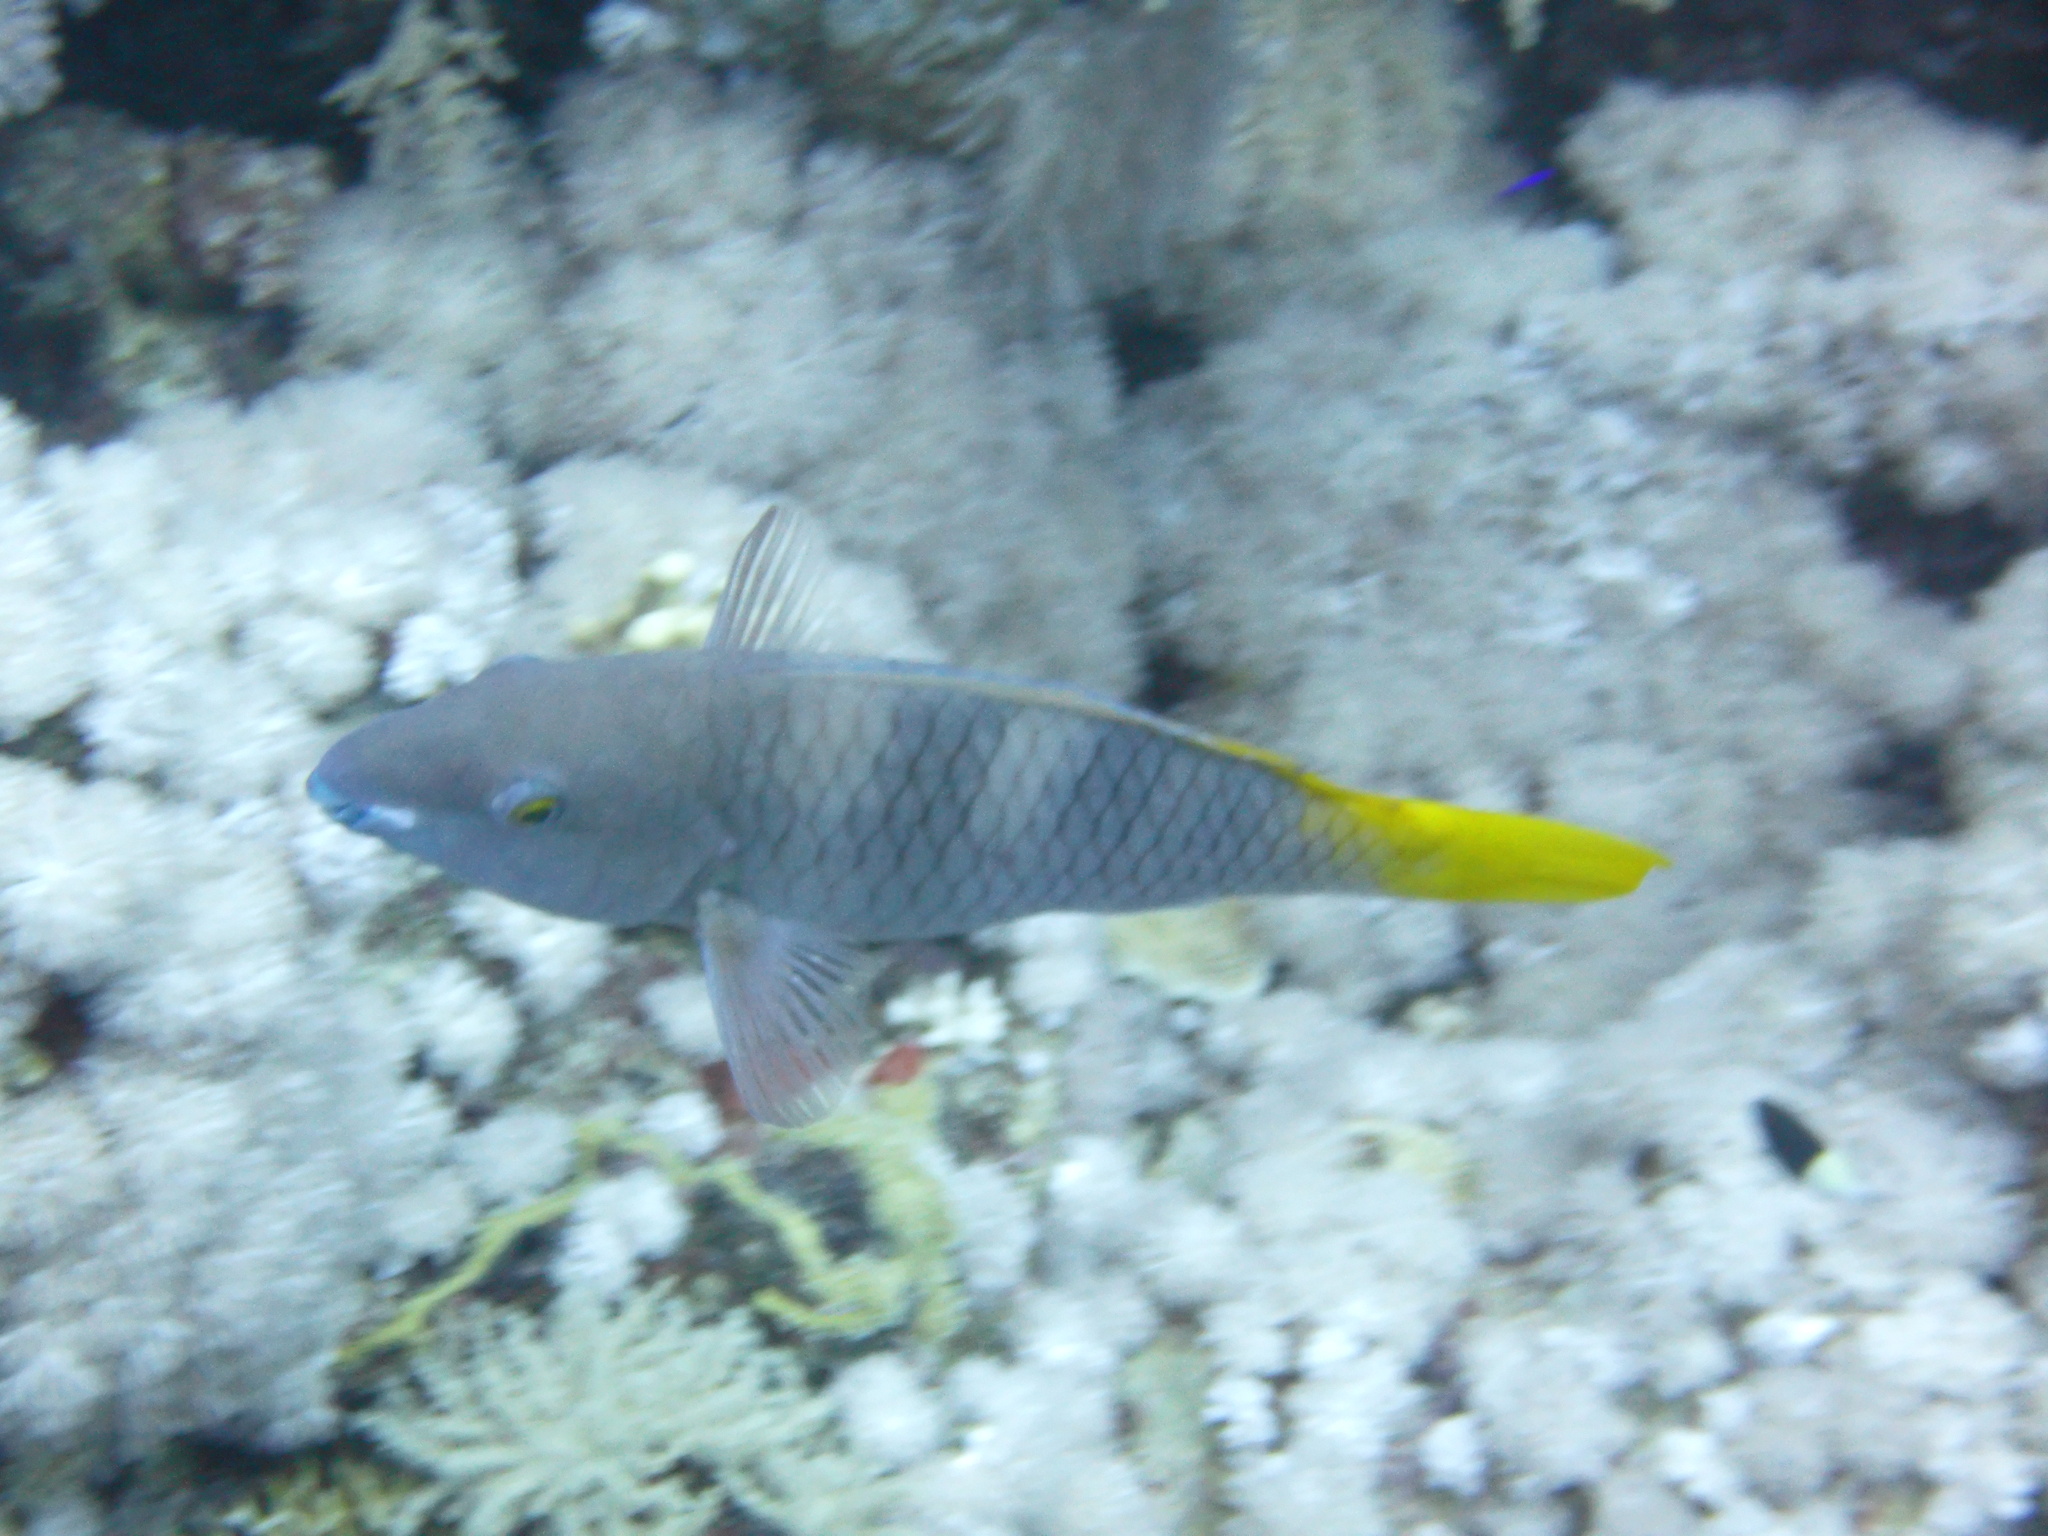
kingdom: Animalia
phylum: Chordata
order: Perciformes
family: Scaridae
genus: Scarus
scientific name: Scarus ferrugineus
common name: Rusty parrotfish
